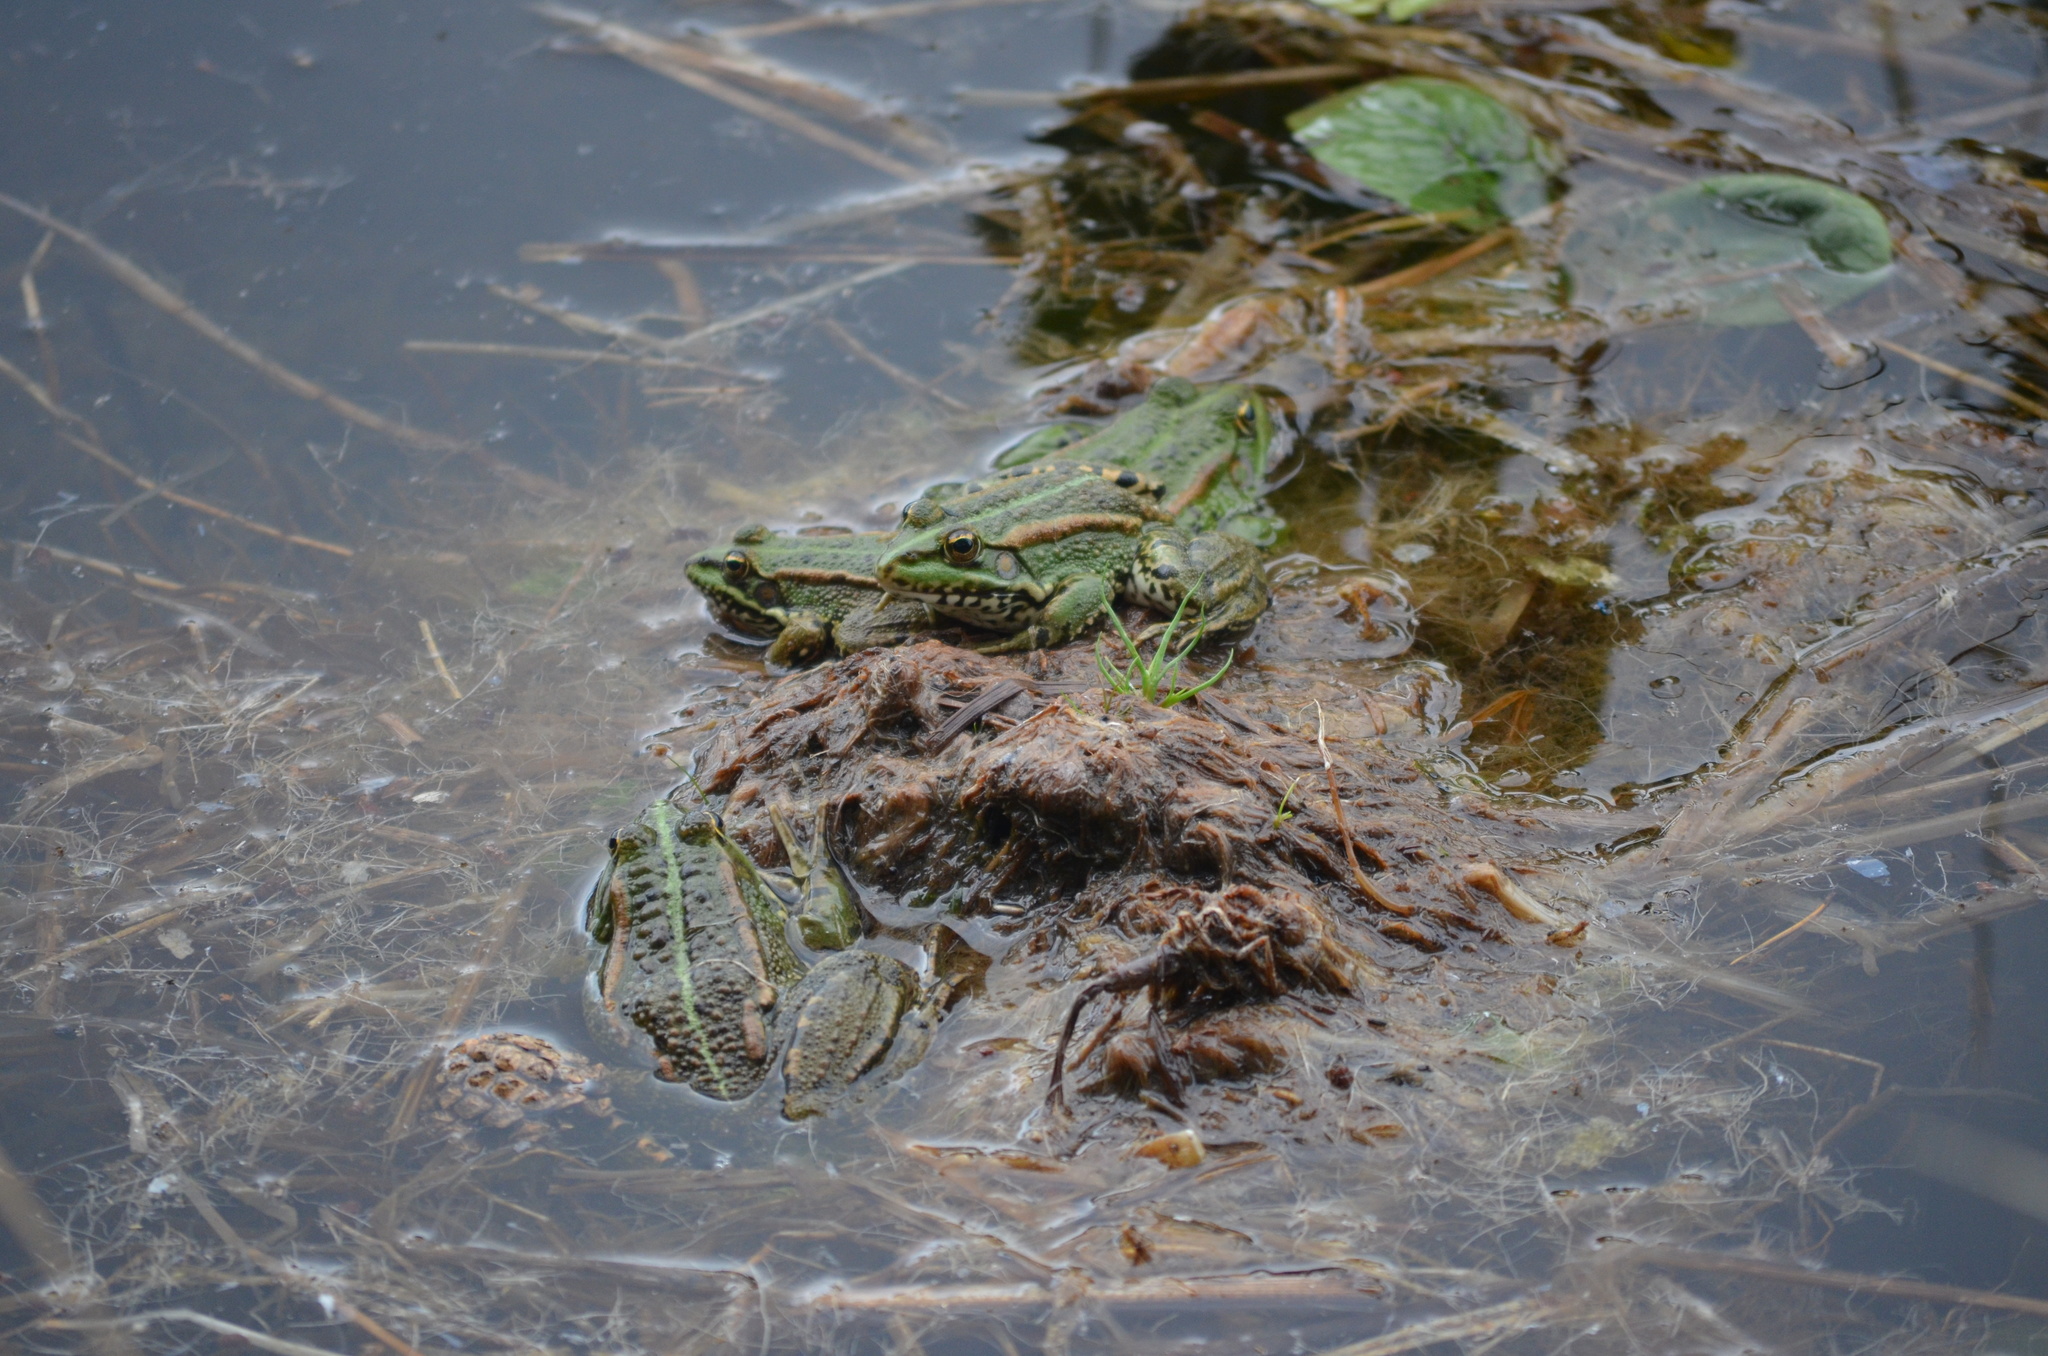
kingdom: Animalia
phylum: Chordata
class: Amphibia
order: Anura
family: Ranidae
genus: Pelophylax
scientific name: Pelophylax perezi
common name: Perez's frog
